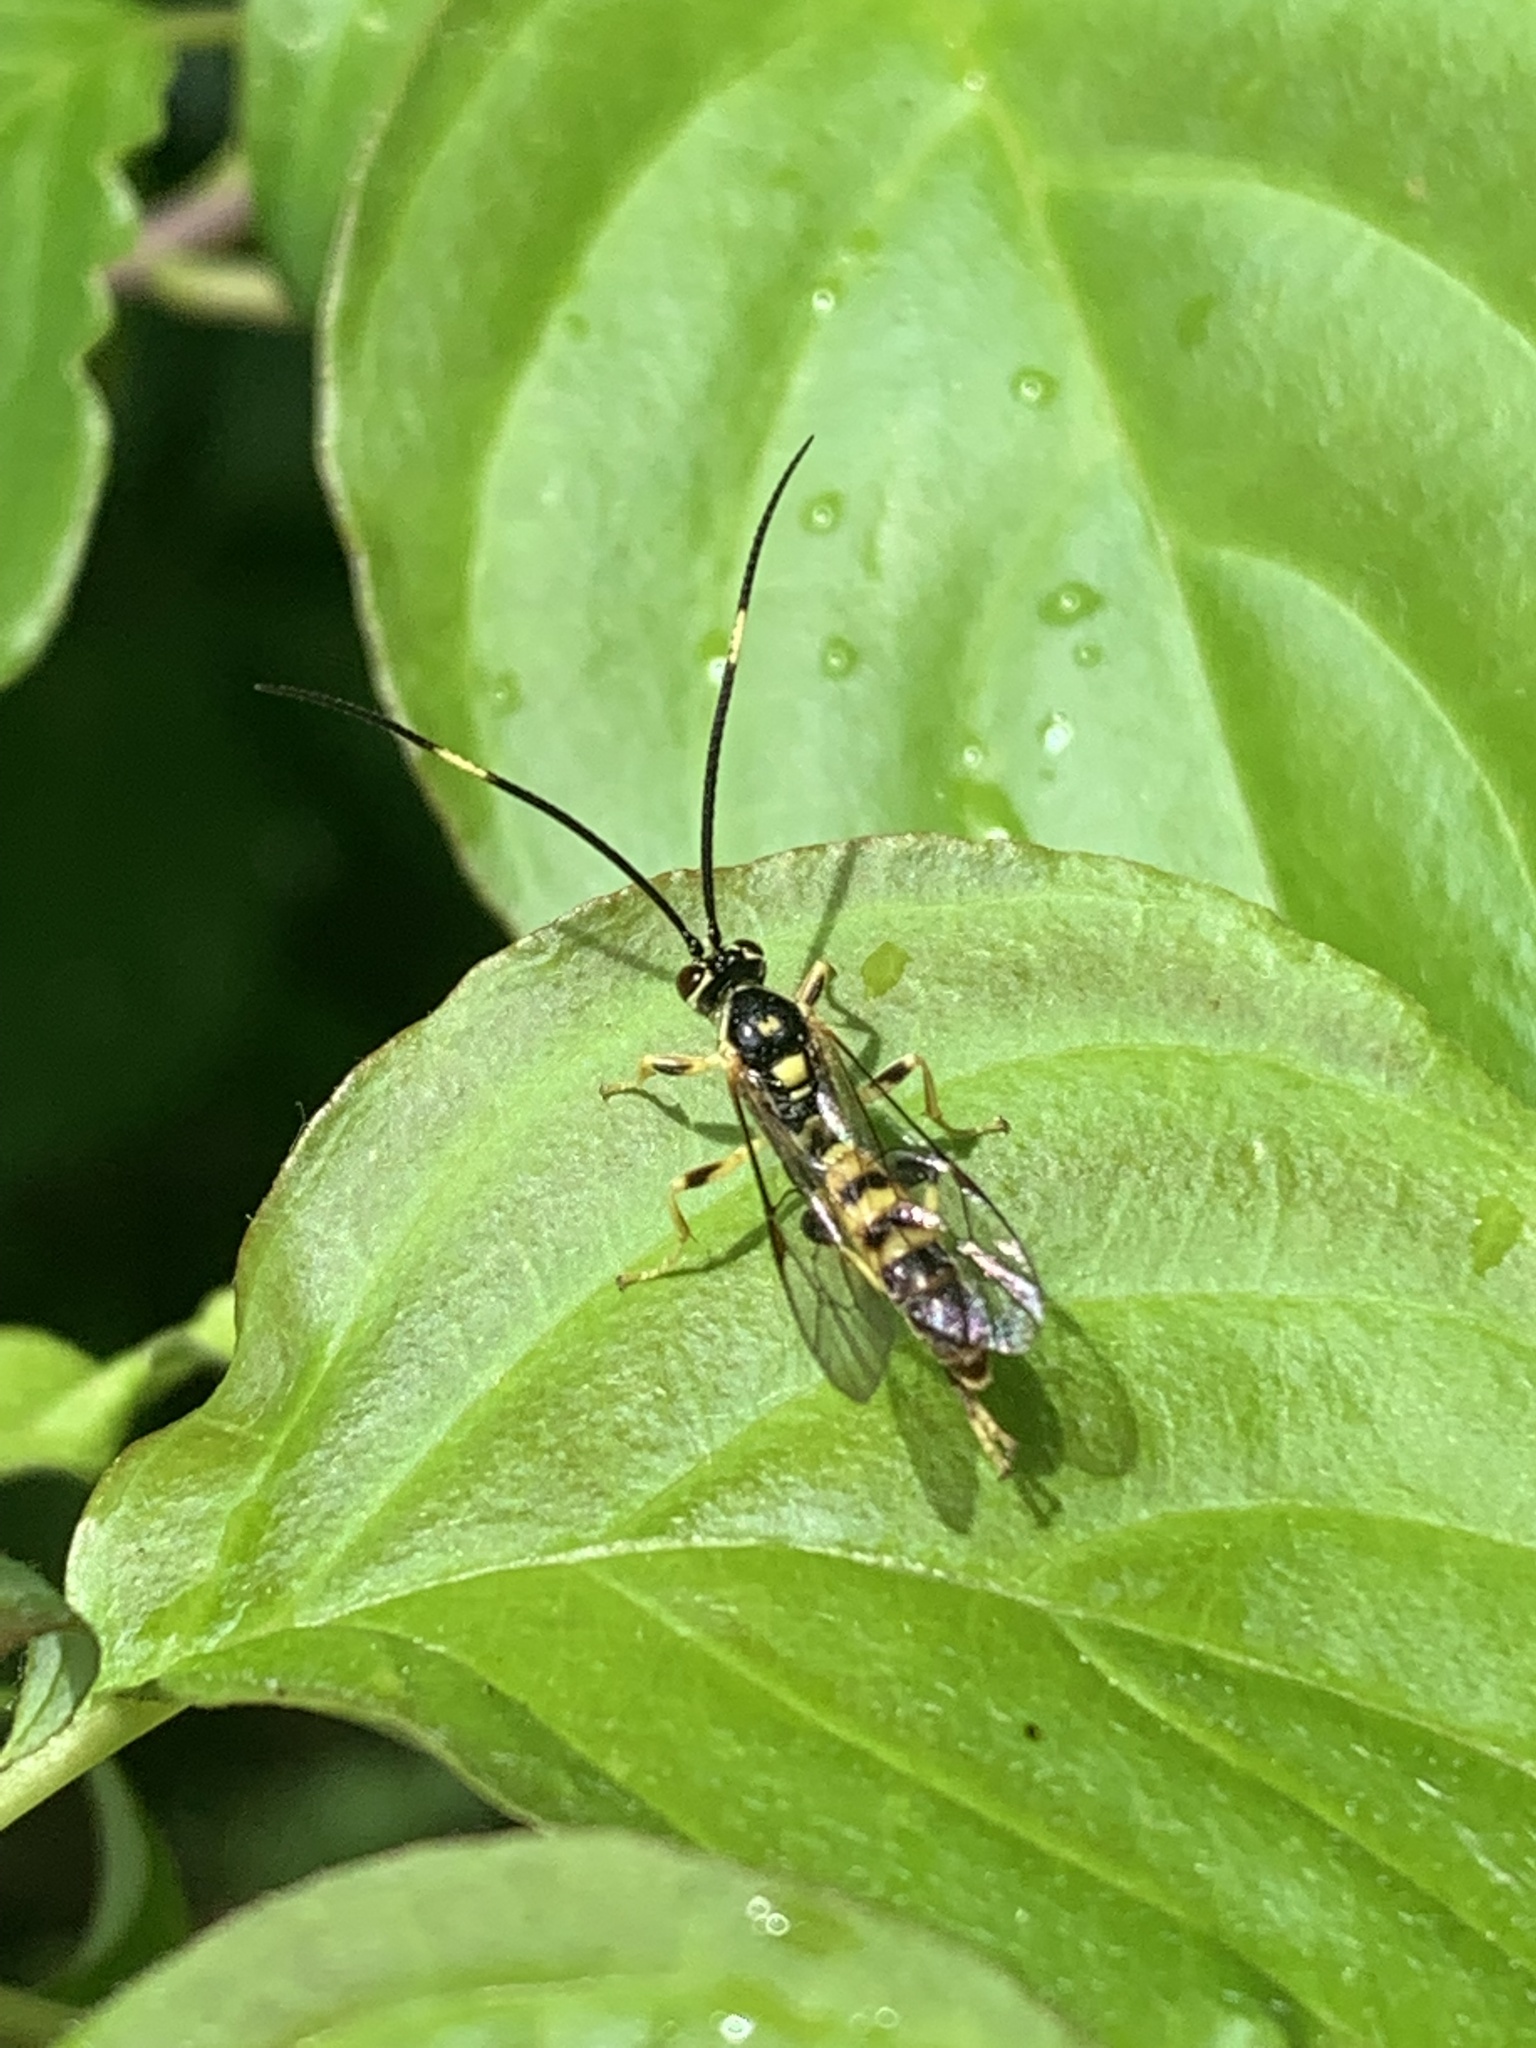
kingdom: Animalia
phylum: Arthropoda
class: Insecta
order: Hymenoptera
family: Ichneumonidae
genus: Ichneumon
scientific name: Ichneumon annulatorius
